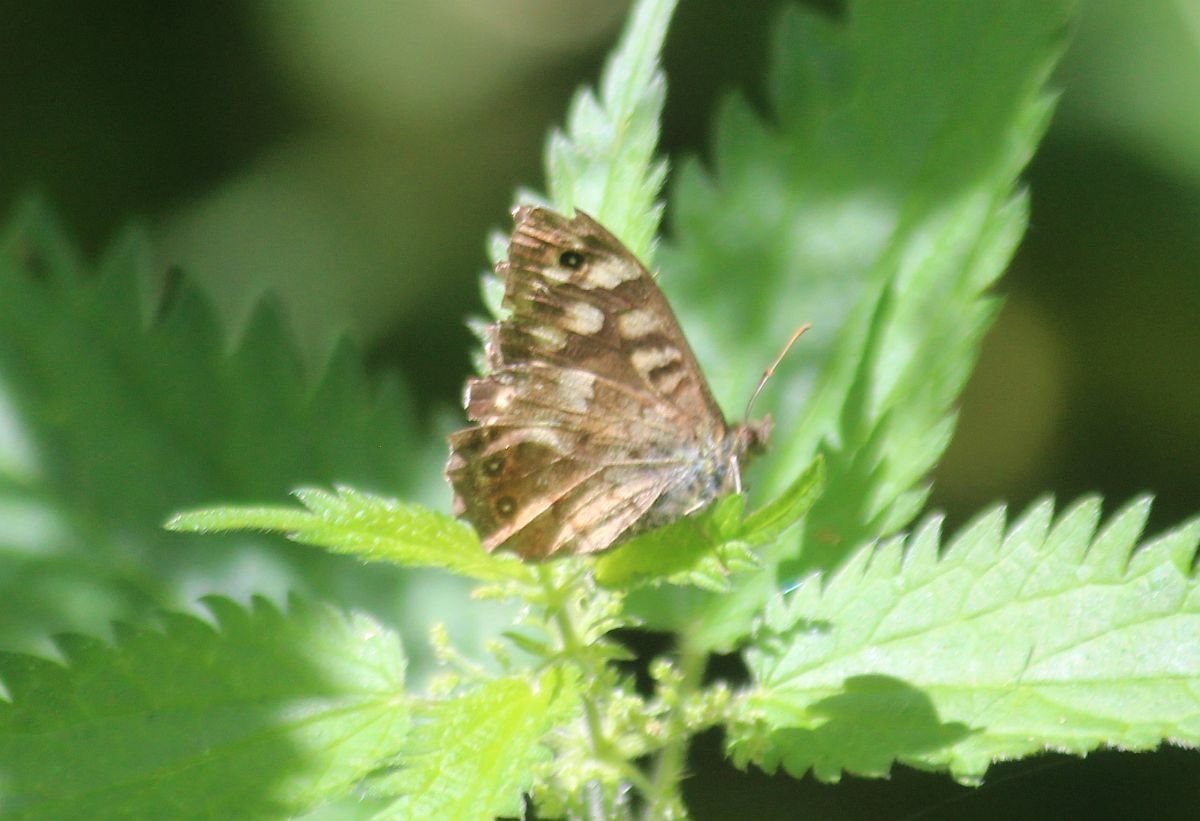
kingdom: Animalia
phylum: Arthropoda
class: Insecta
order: Lepidoptera
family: Nymphalidae
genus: Pararge
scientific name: Pararge aegeria
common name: Speckled wood
